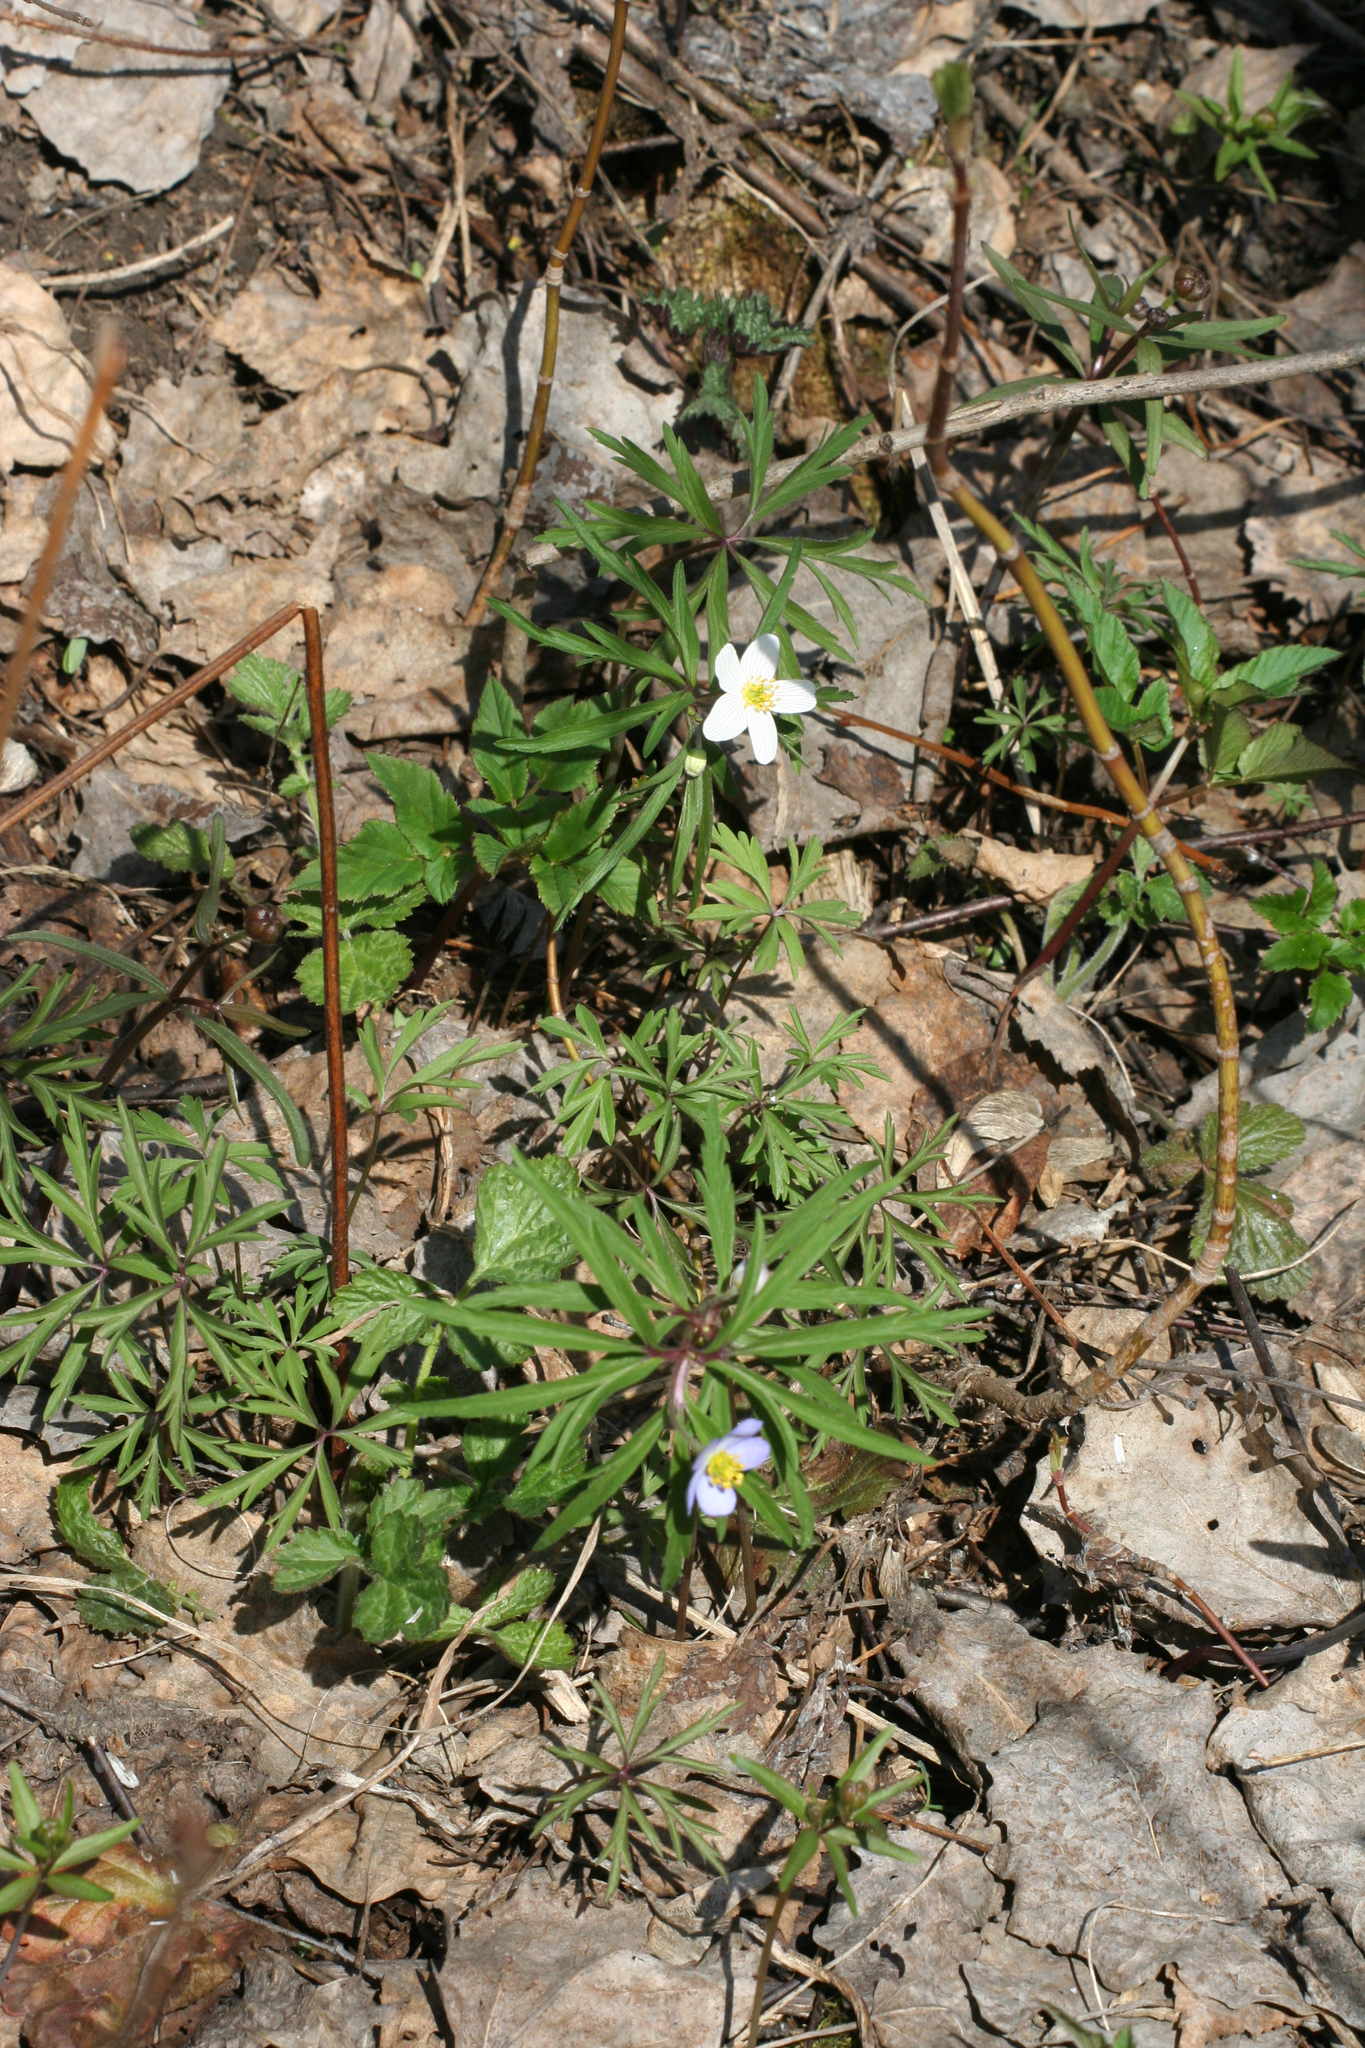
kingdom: Plantae
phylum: Tracheophyta
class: Magnoliopsida
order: Ranunculales
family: Ranunculaceae
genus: Anemone
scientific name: Anemone caerulea
